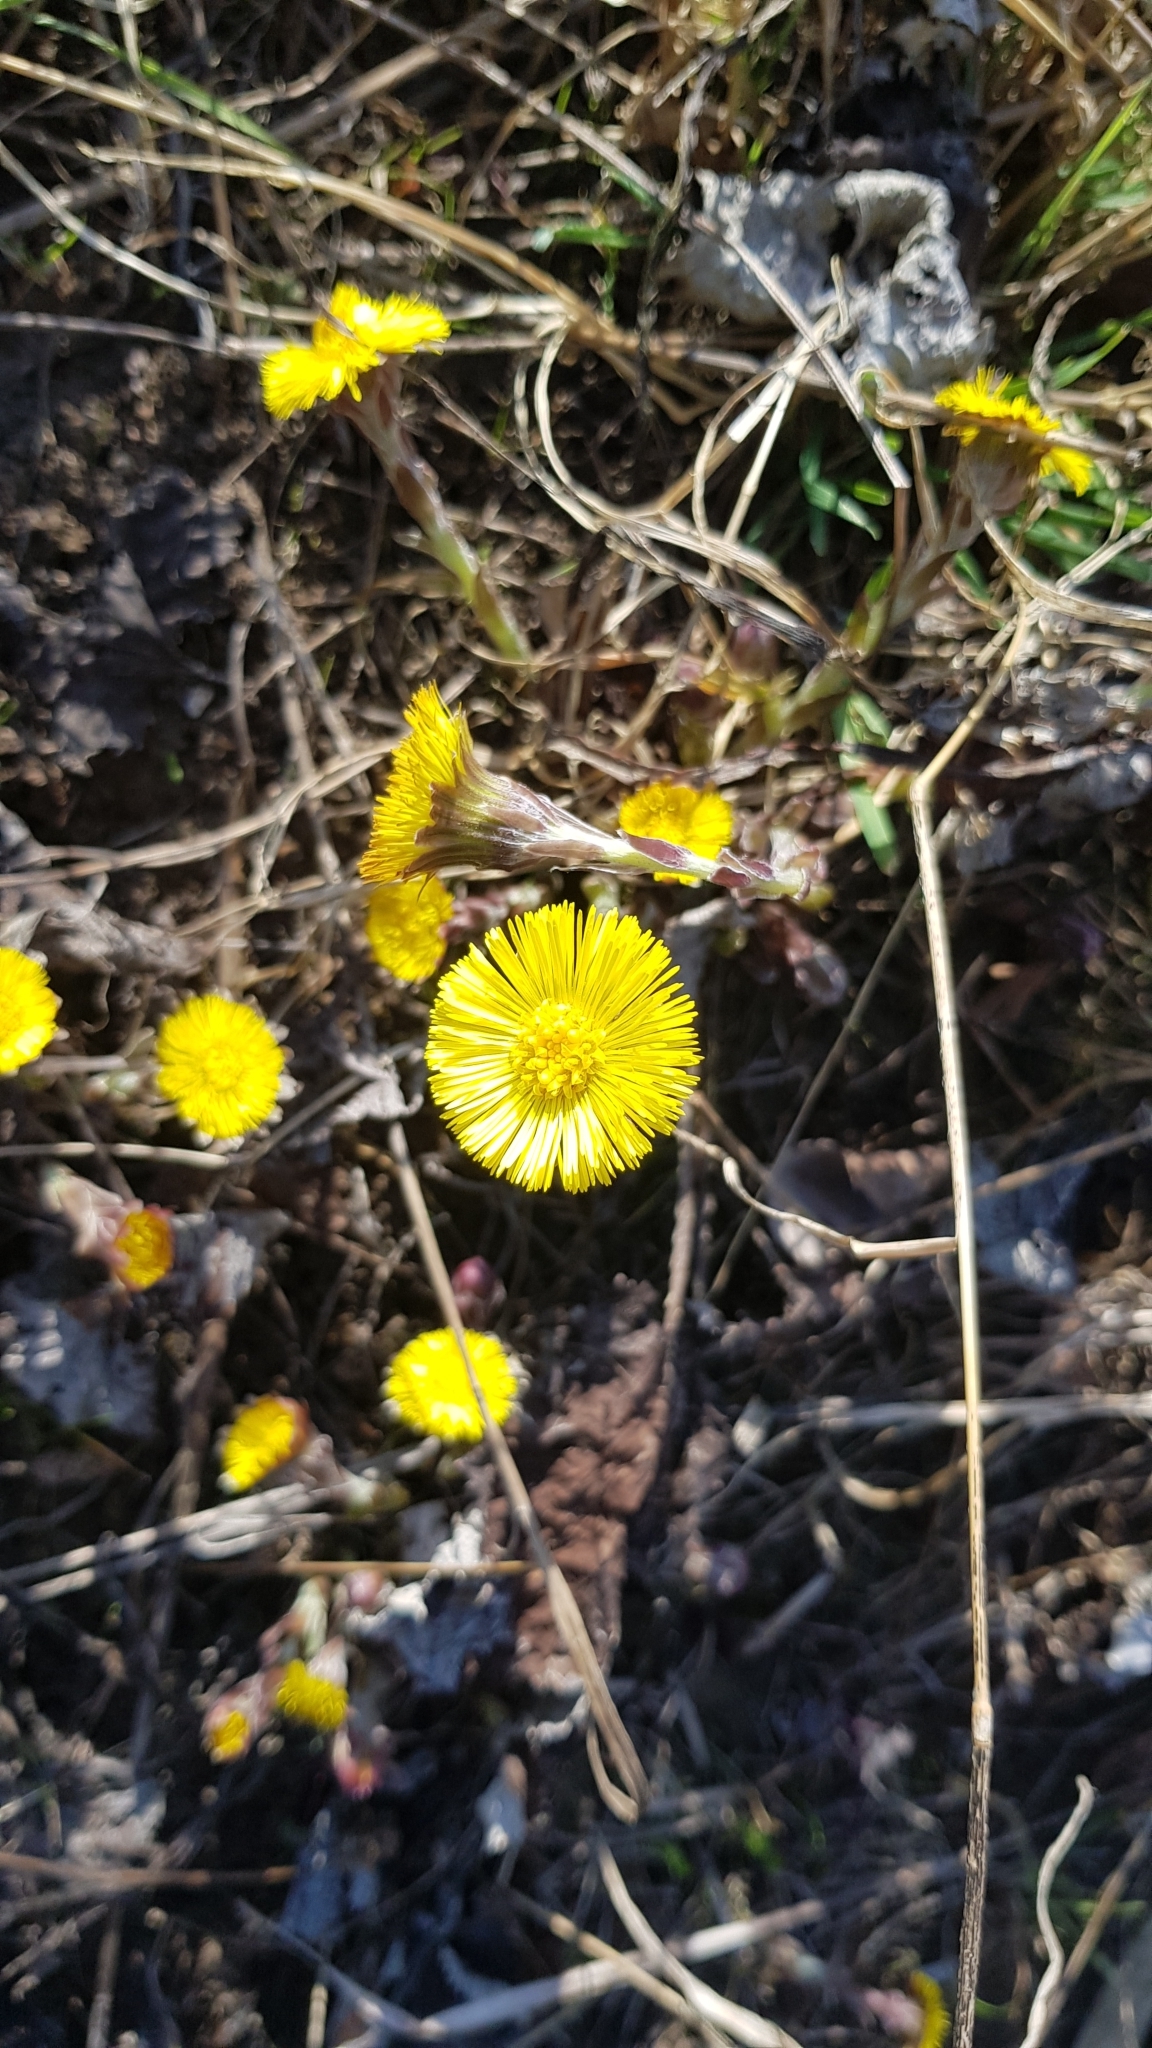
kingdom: Plantae
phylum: Tracheophyta
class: Magnoliopsida
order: Asterales
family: Asteraceae
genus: Tussilago
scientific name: Tussilago farfara
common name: Coltsfoot
